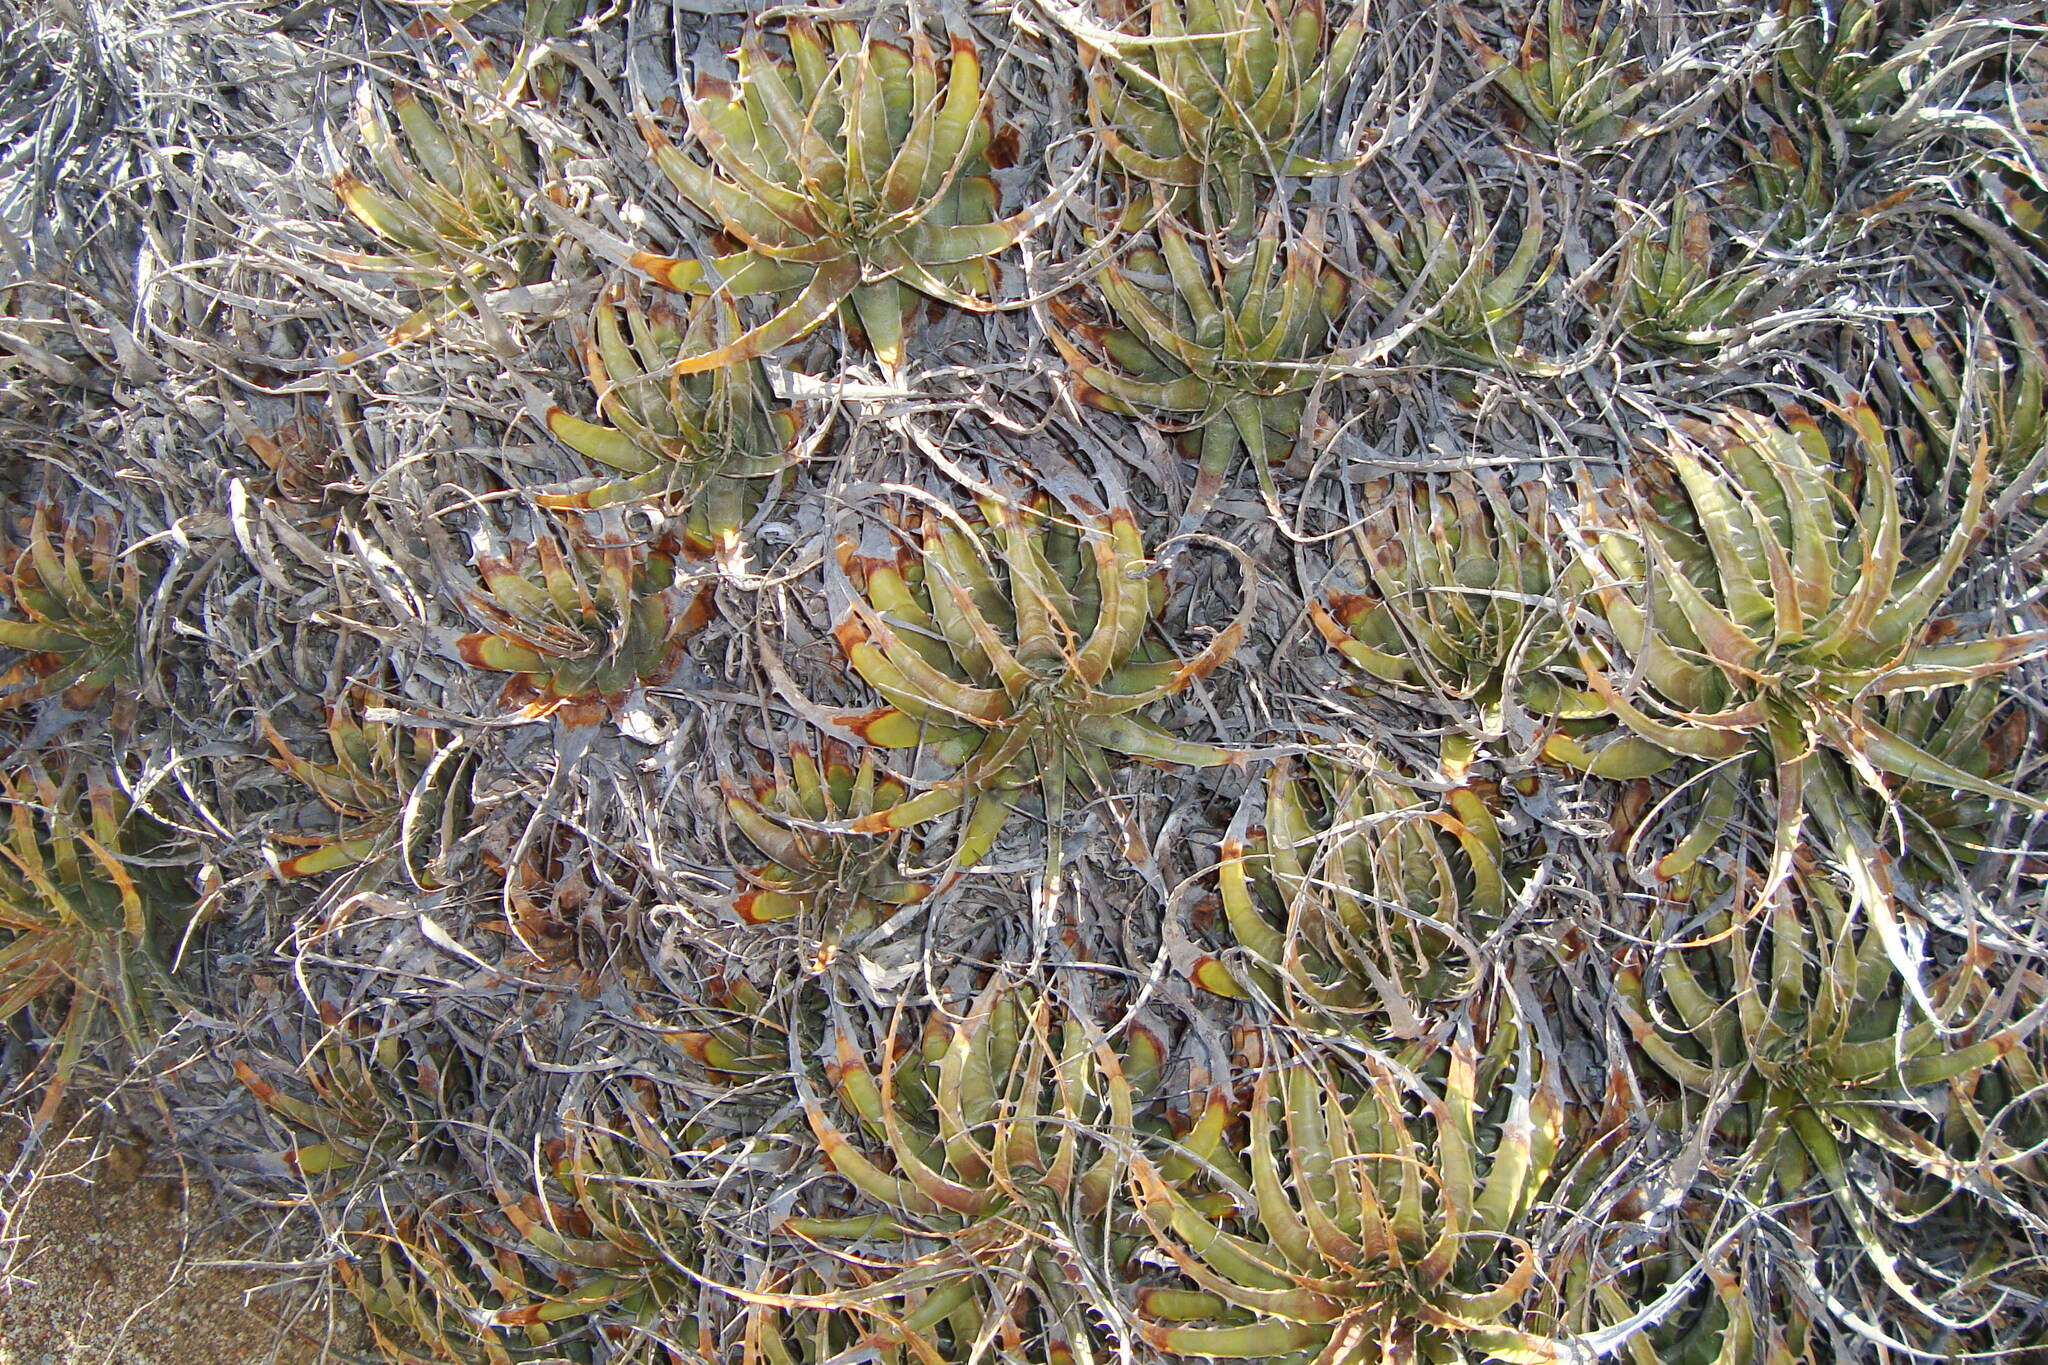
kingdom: Plantae
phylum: Tracheophyta
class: Liliopsida
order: Poales
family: Bromeliaceae
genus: Deuterocohnia
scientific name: Deuterocohnia chrysantha
